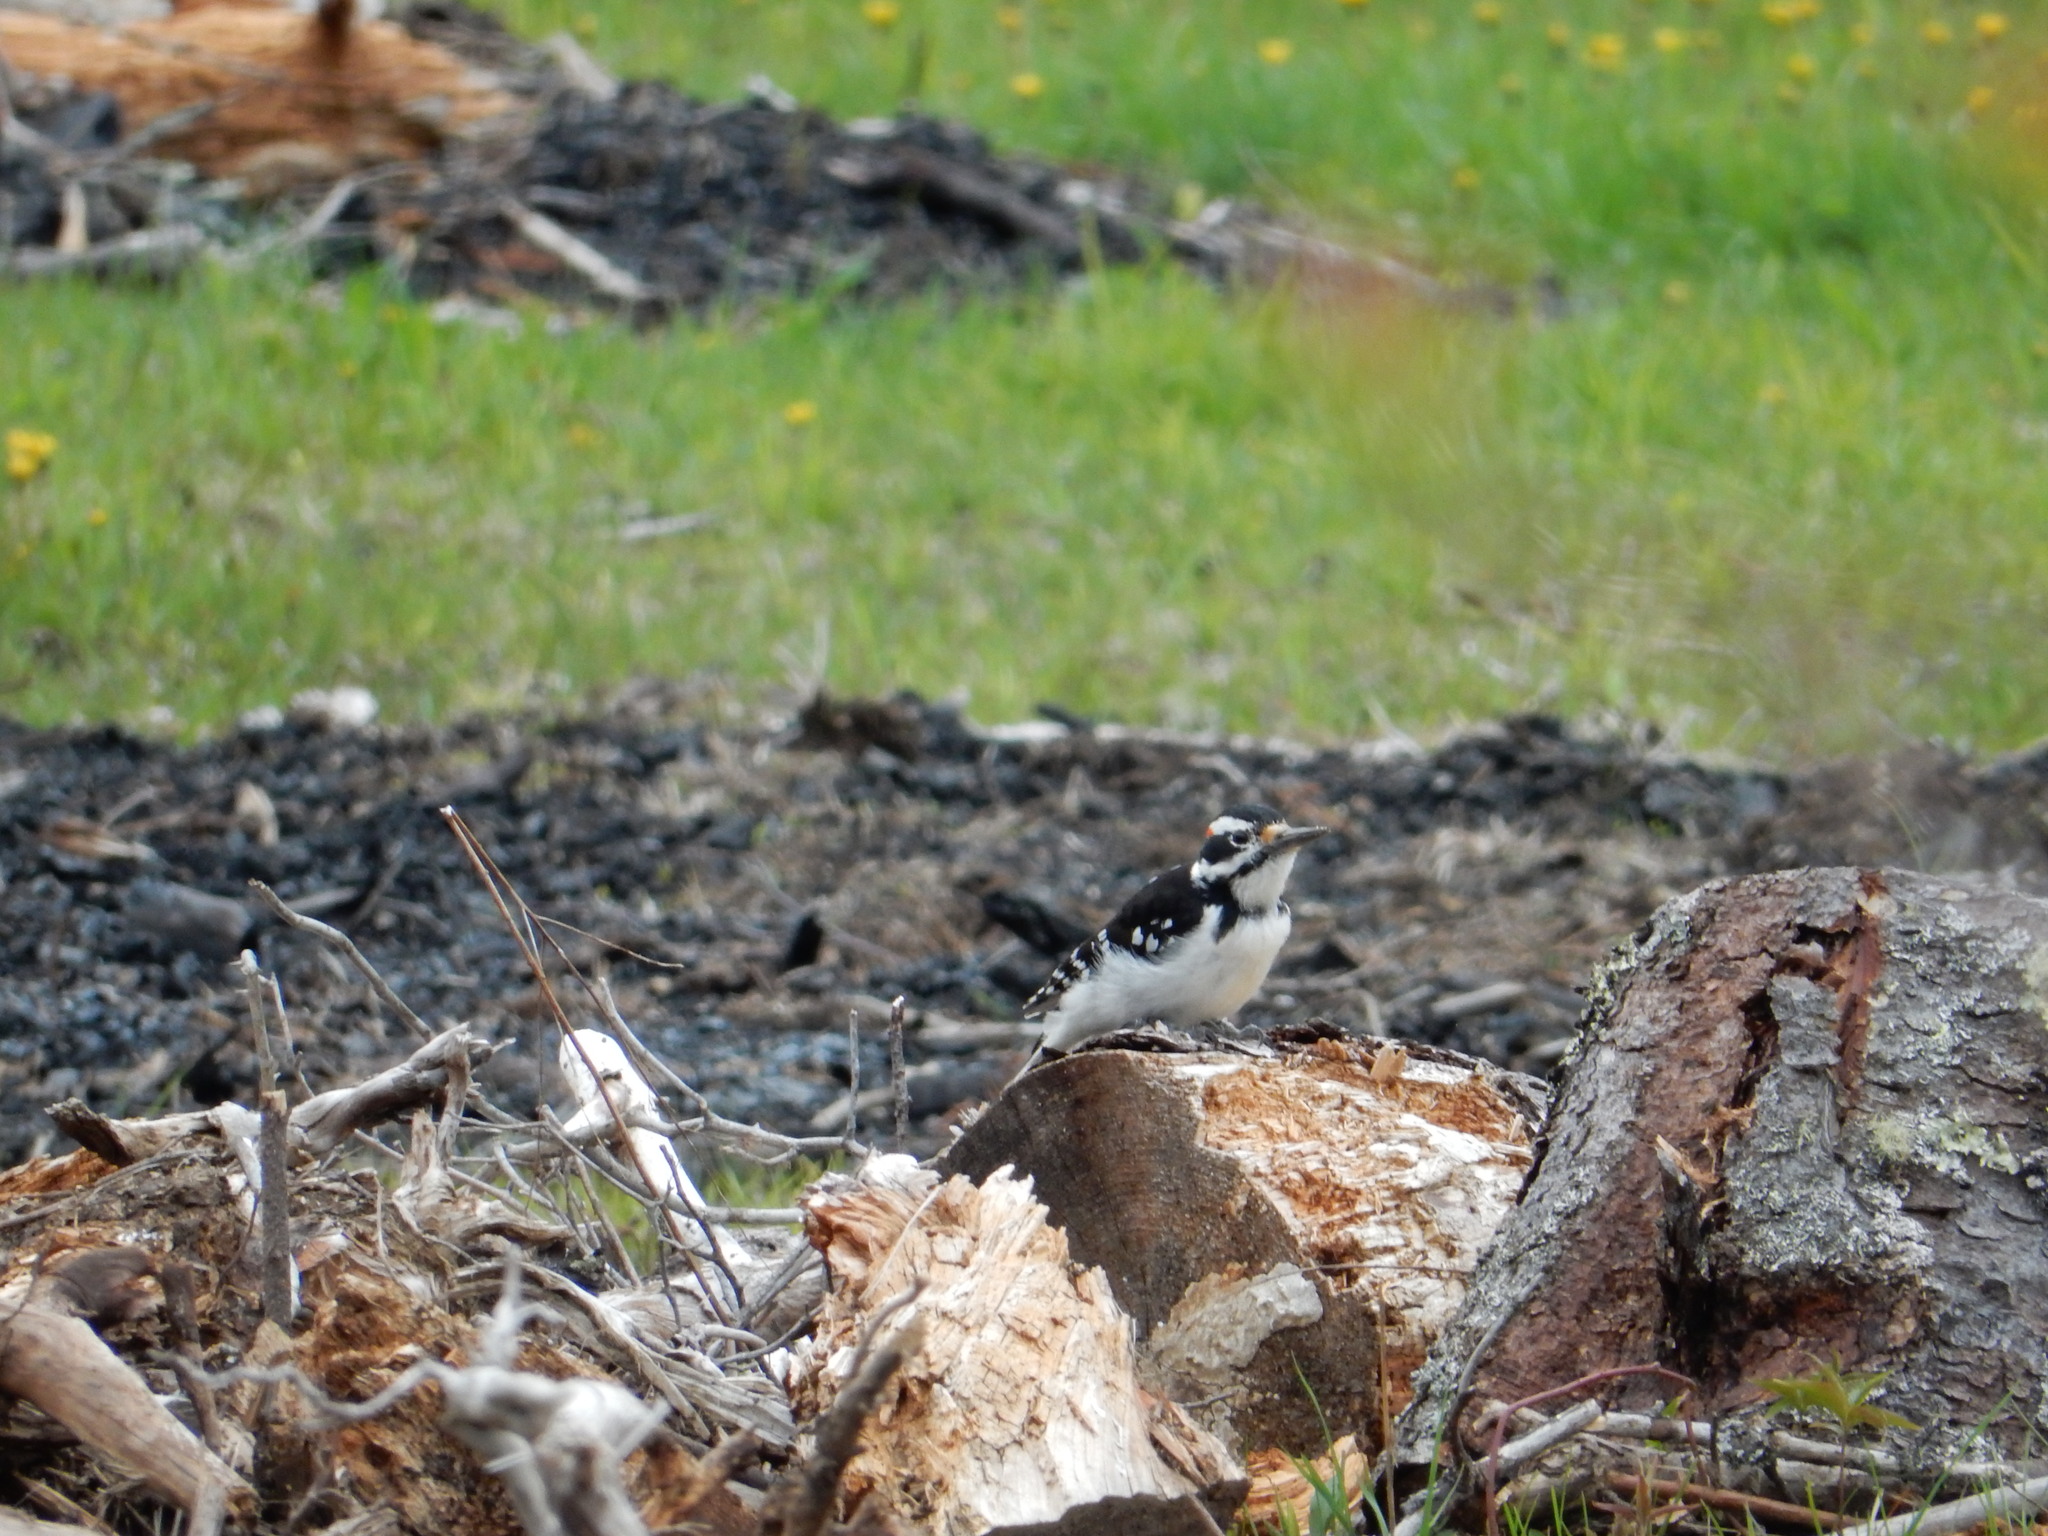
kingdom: Animalia
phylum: Chordata
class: Aves
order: Piciformes
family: Picidae
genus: Leuconotopicus
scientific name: Leuconotopicus villosus
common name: Hairy woodpecker
